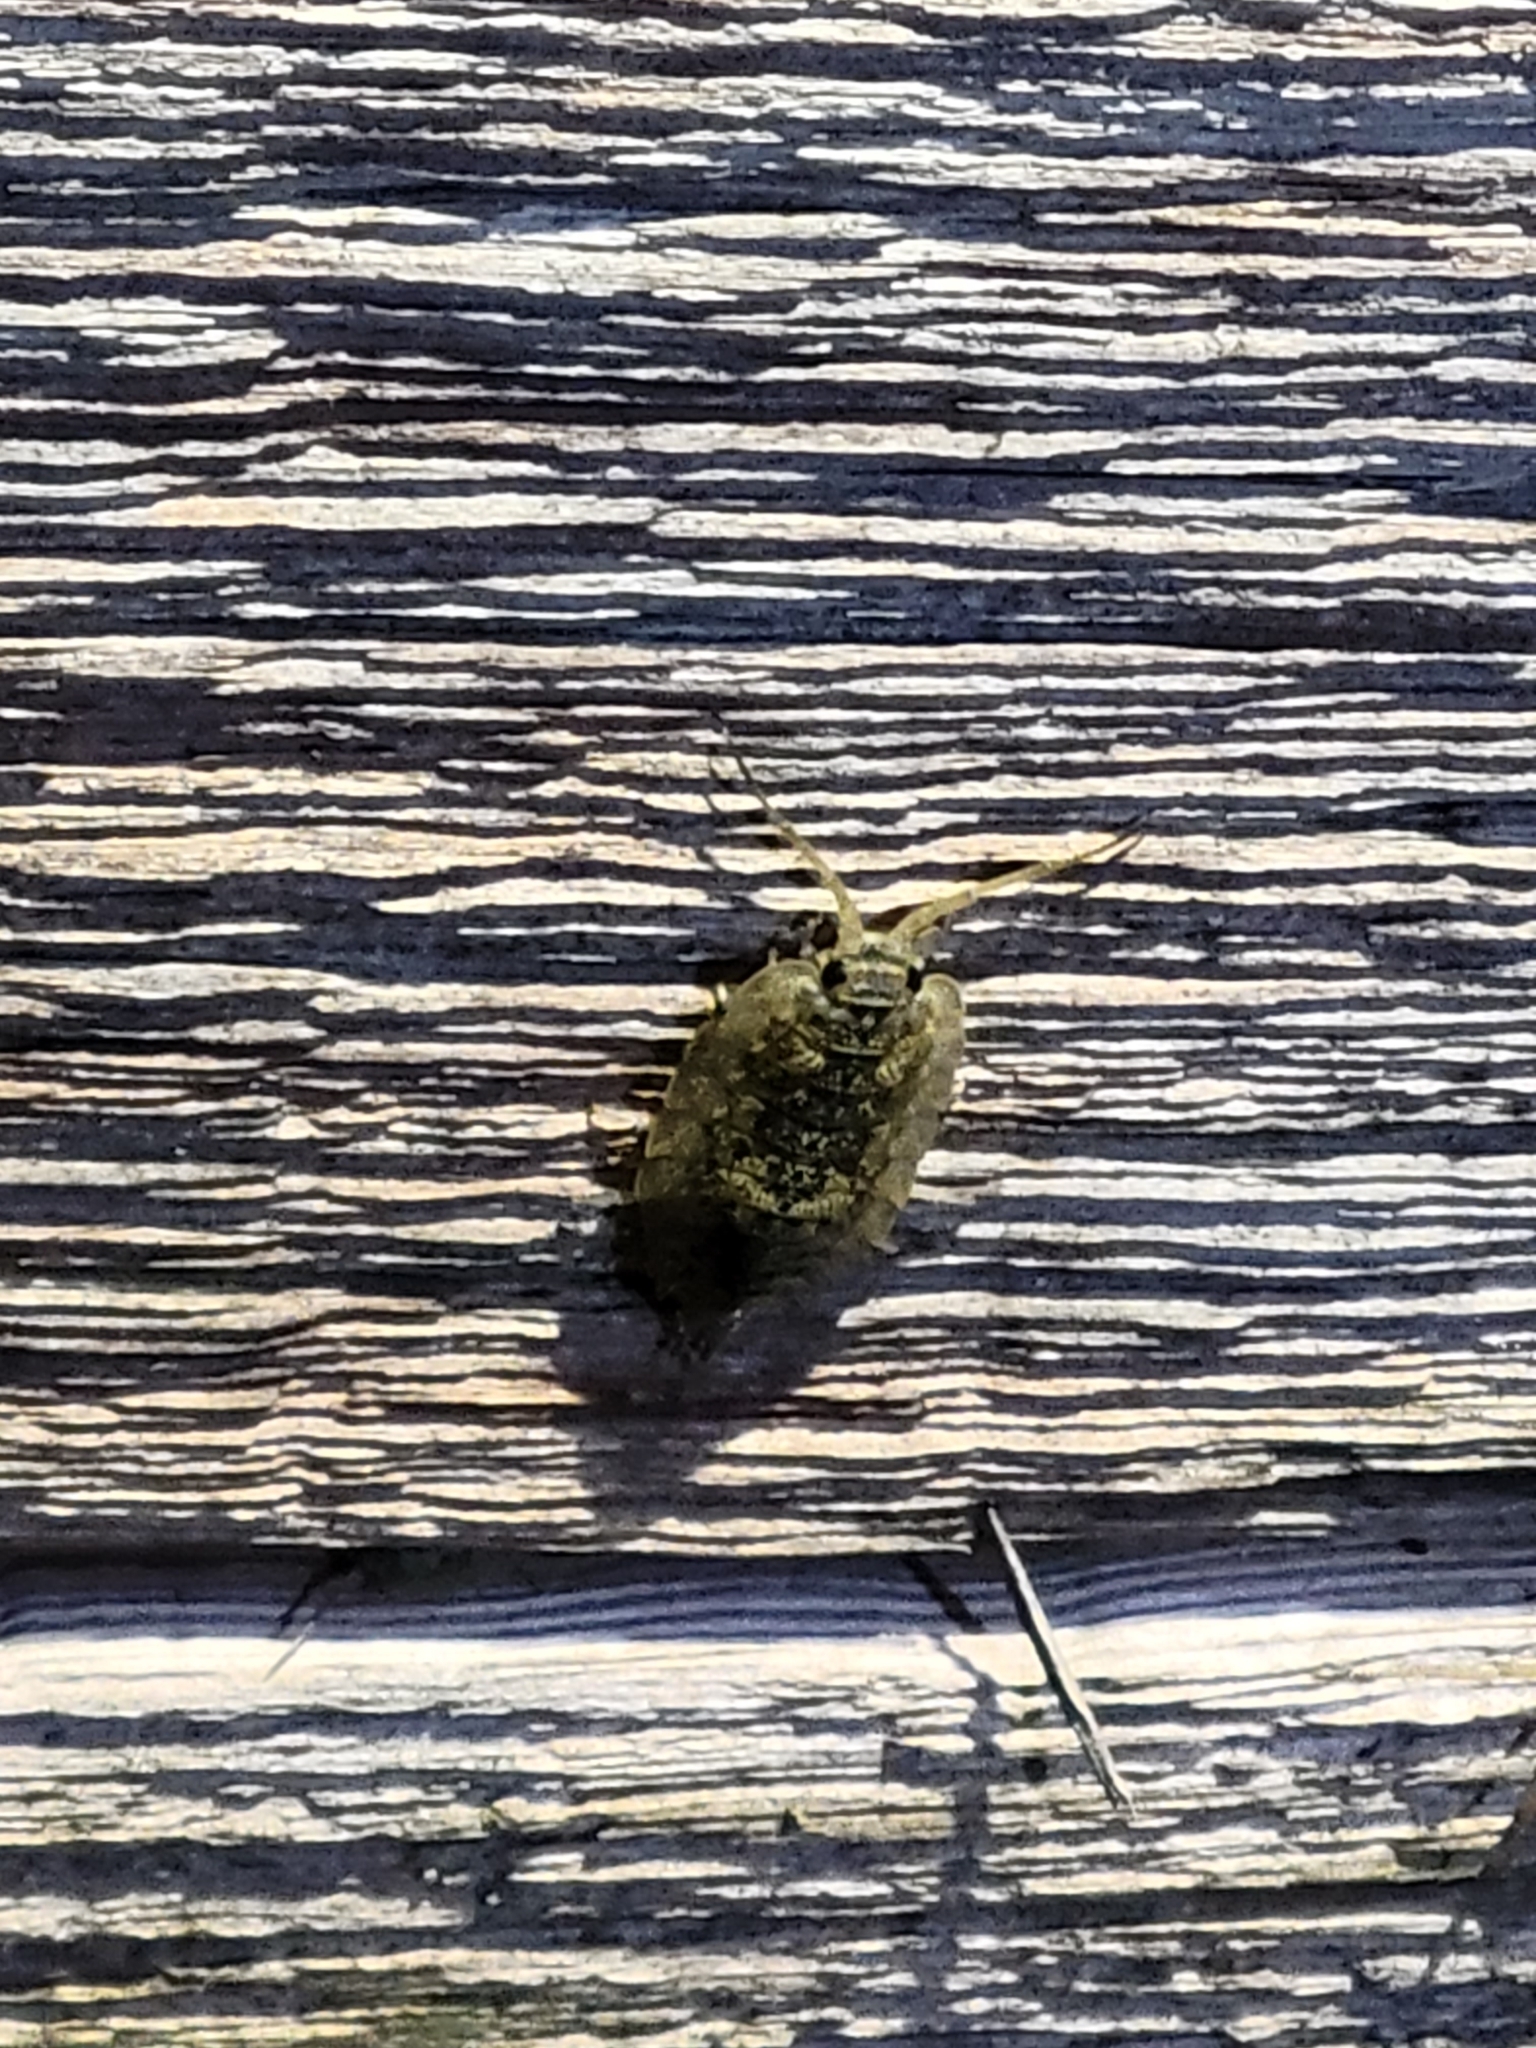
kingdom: Animalia
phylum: Arthropoda
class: Malacostraca
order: Isopoda
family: Ligiidae
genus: Ligia
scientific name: Ligia pallasii
